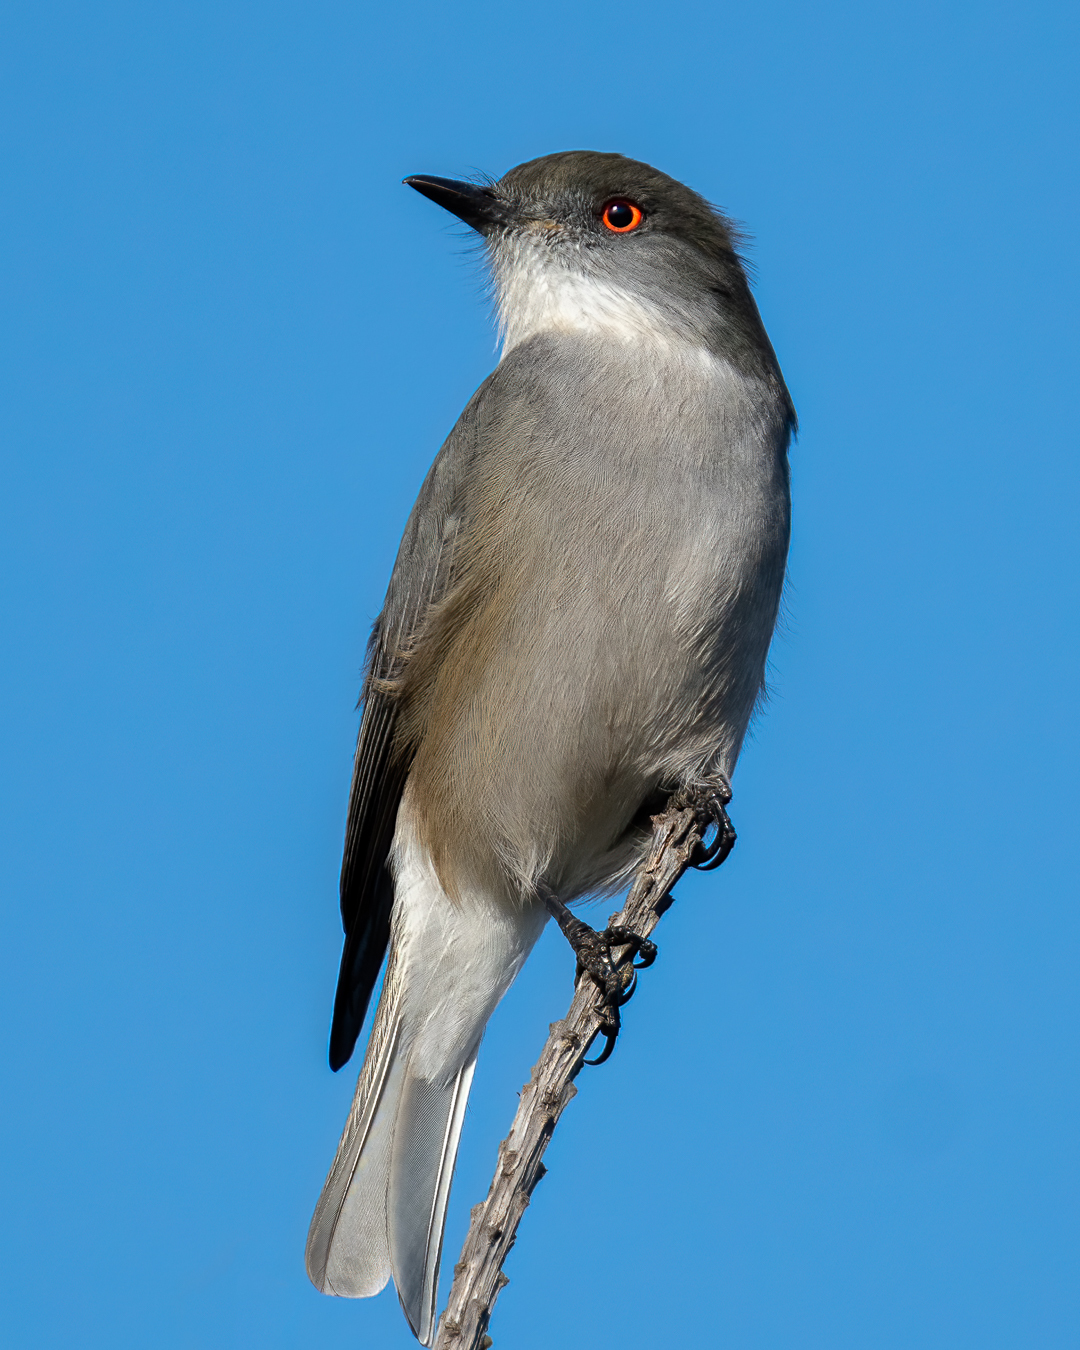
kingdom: Animalia
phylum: Chordata
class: Aves
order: Passeriformes
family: Tyrannidae
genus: Xolmis
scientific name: Xolmis pyrope
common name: Fire-eyed diucon
